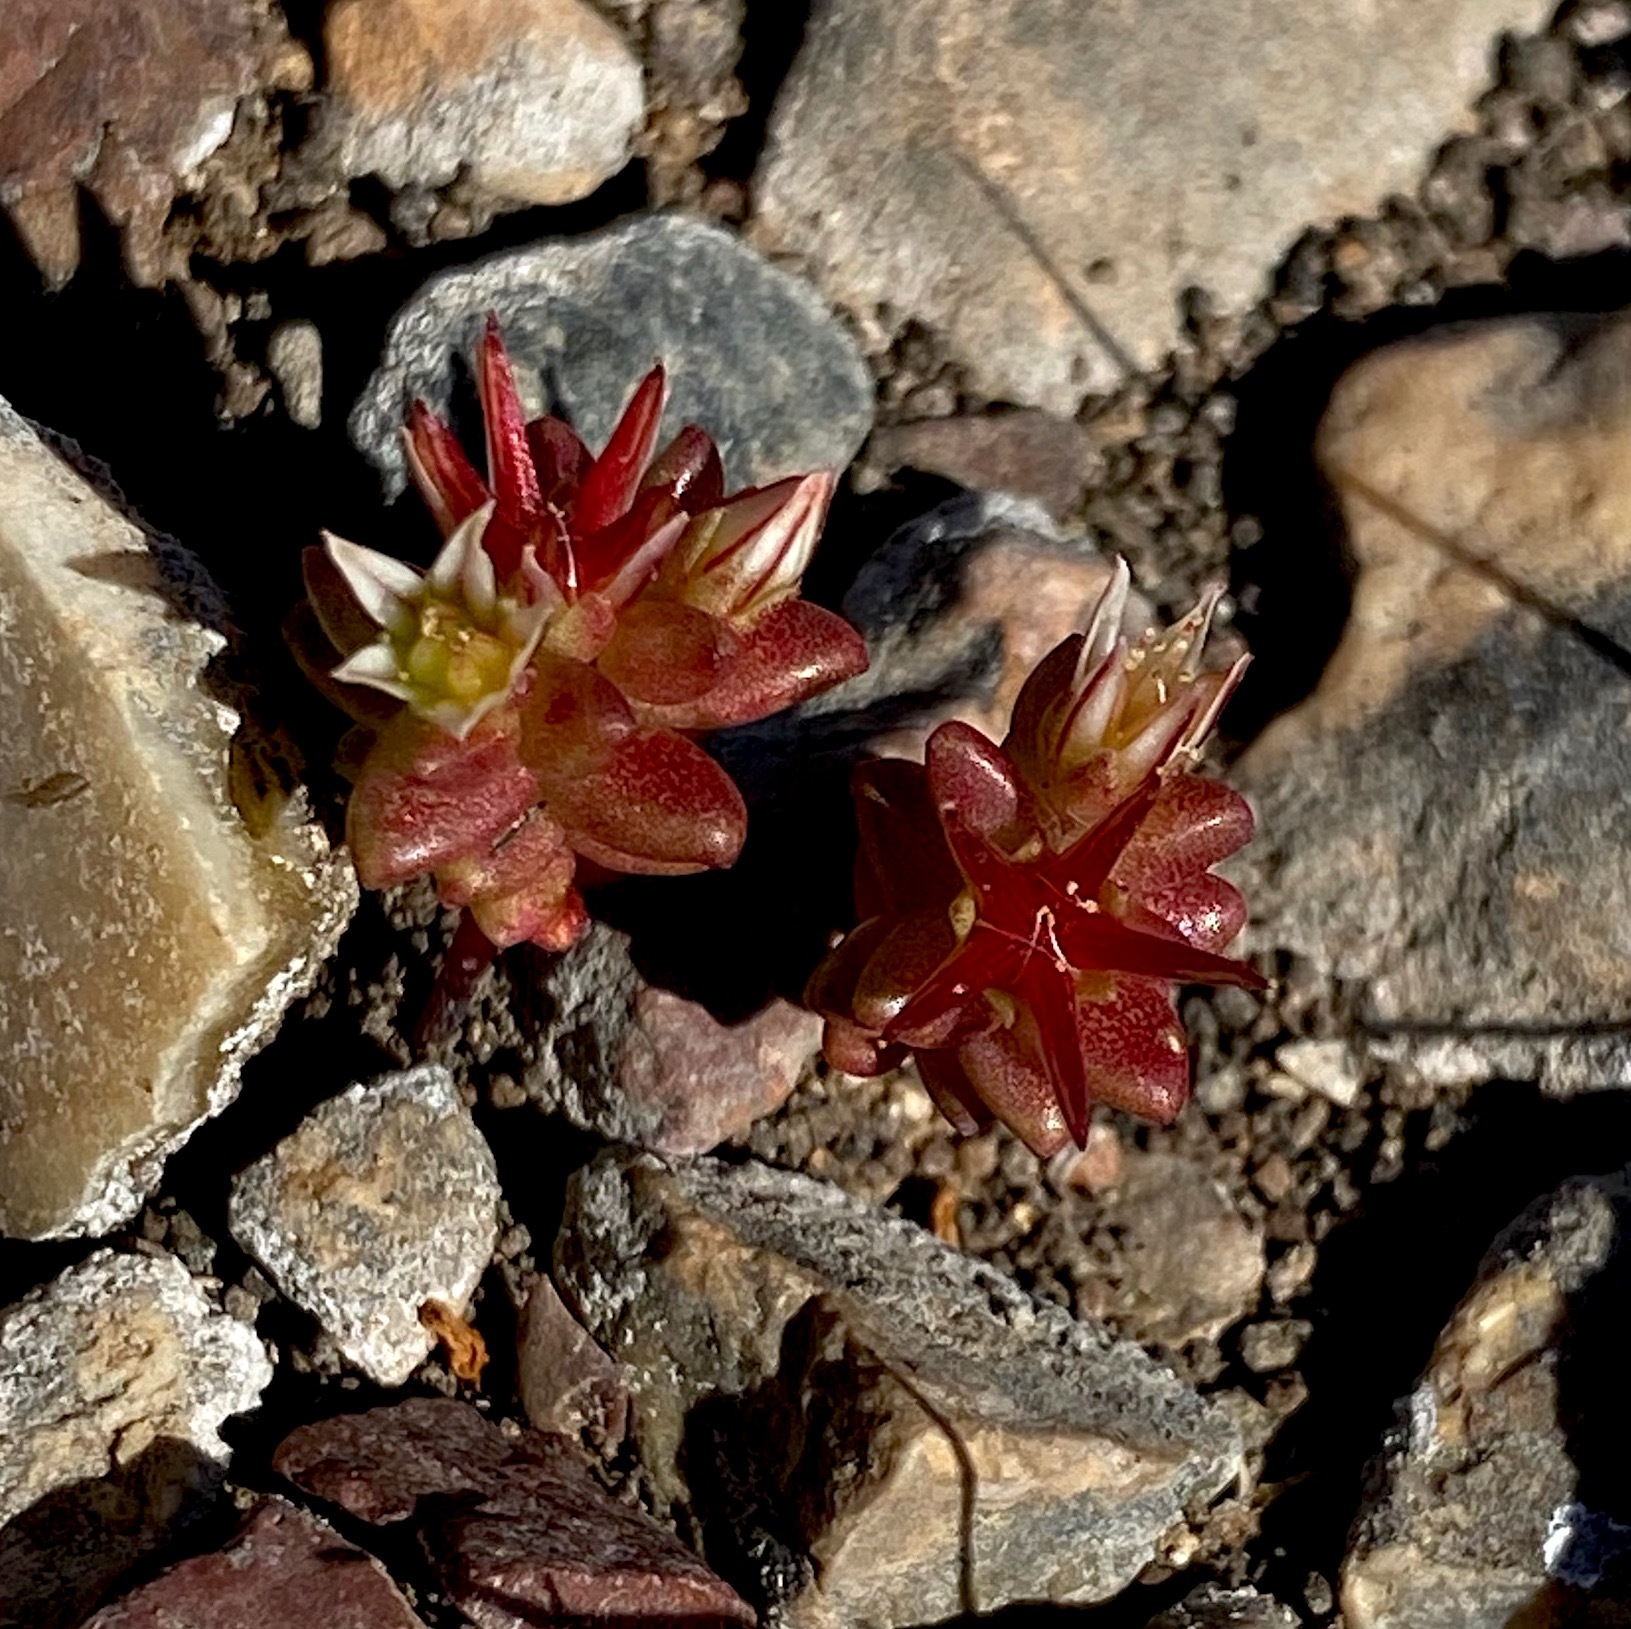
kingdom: Plantae
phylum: Tracheophyta
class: Magnoliopsida
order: Saxifragales
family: Crassulaceae
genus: Sedum
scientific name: Sedum cespitosum
